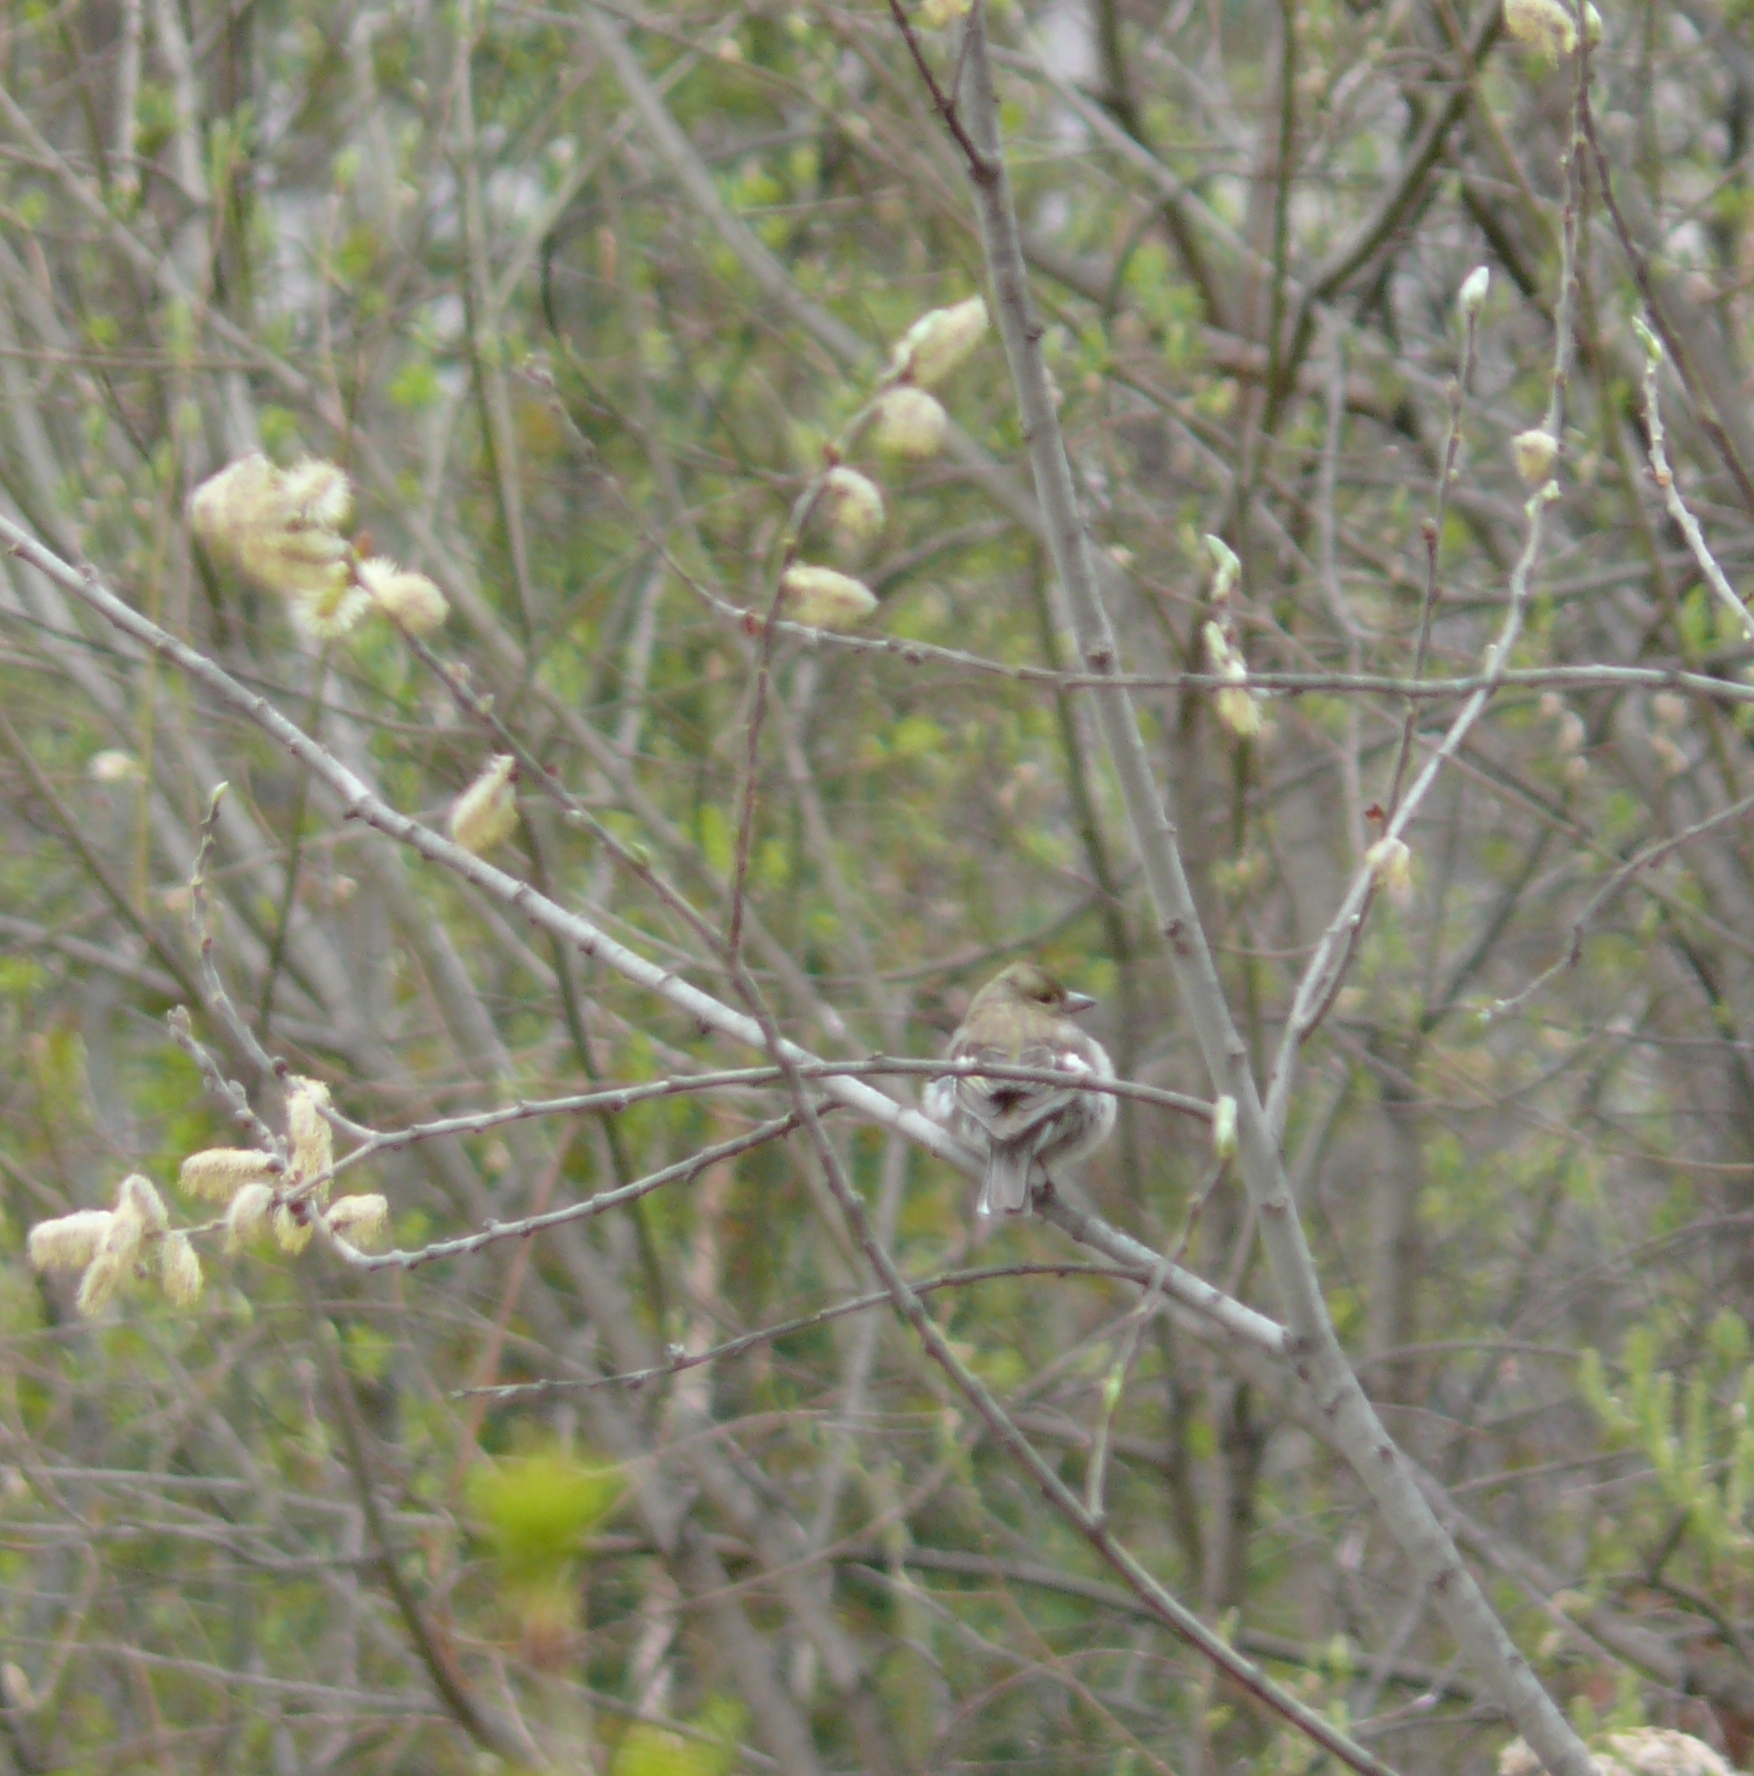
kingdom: Animalia
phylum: Chordata
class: Aves
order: Passeriformes
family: Fringillidae
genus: Fringilla
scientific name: Fringilla coelebs
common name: Common chaffinch
